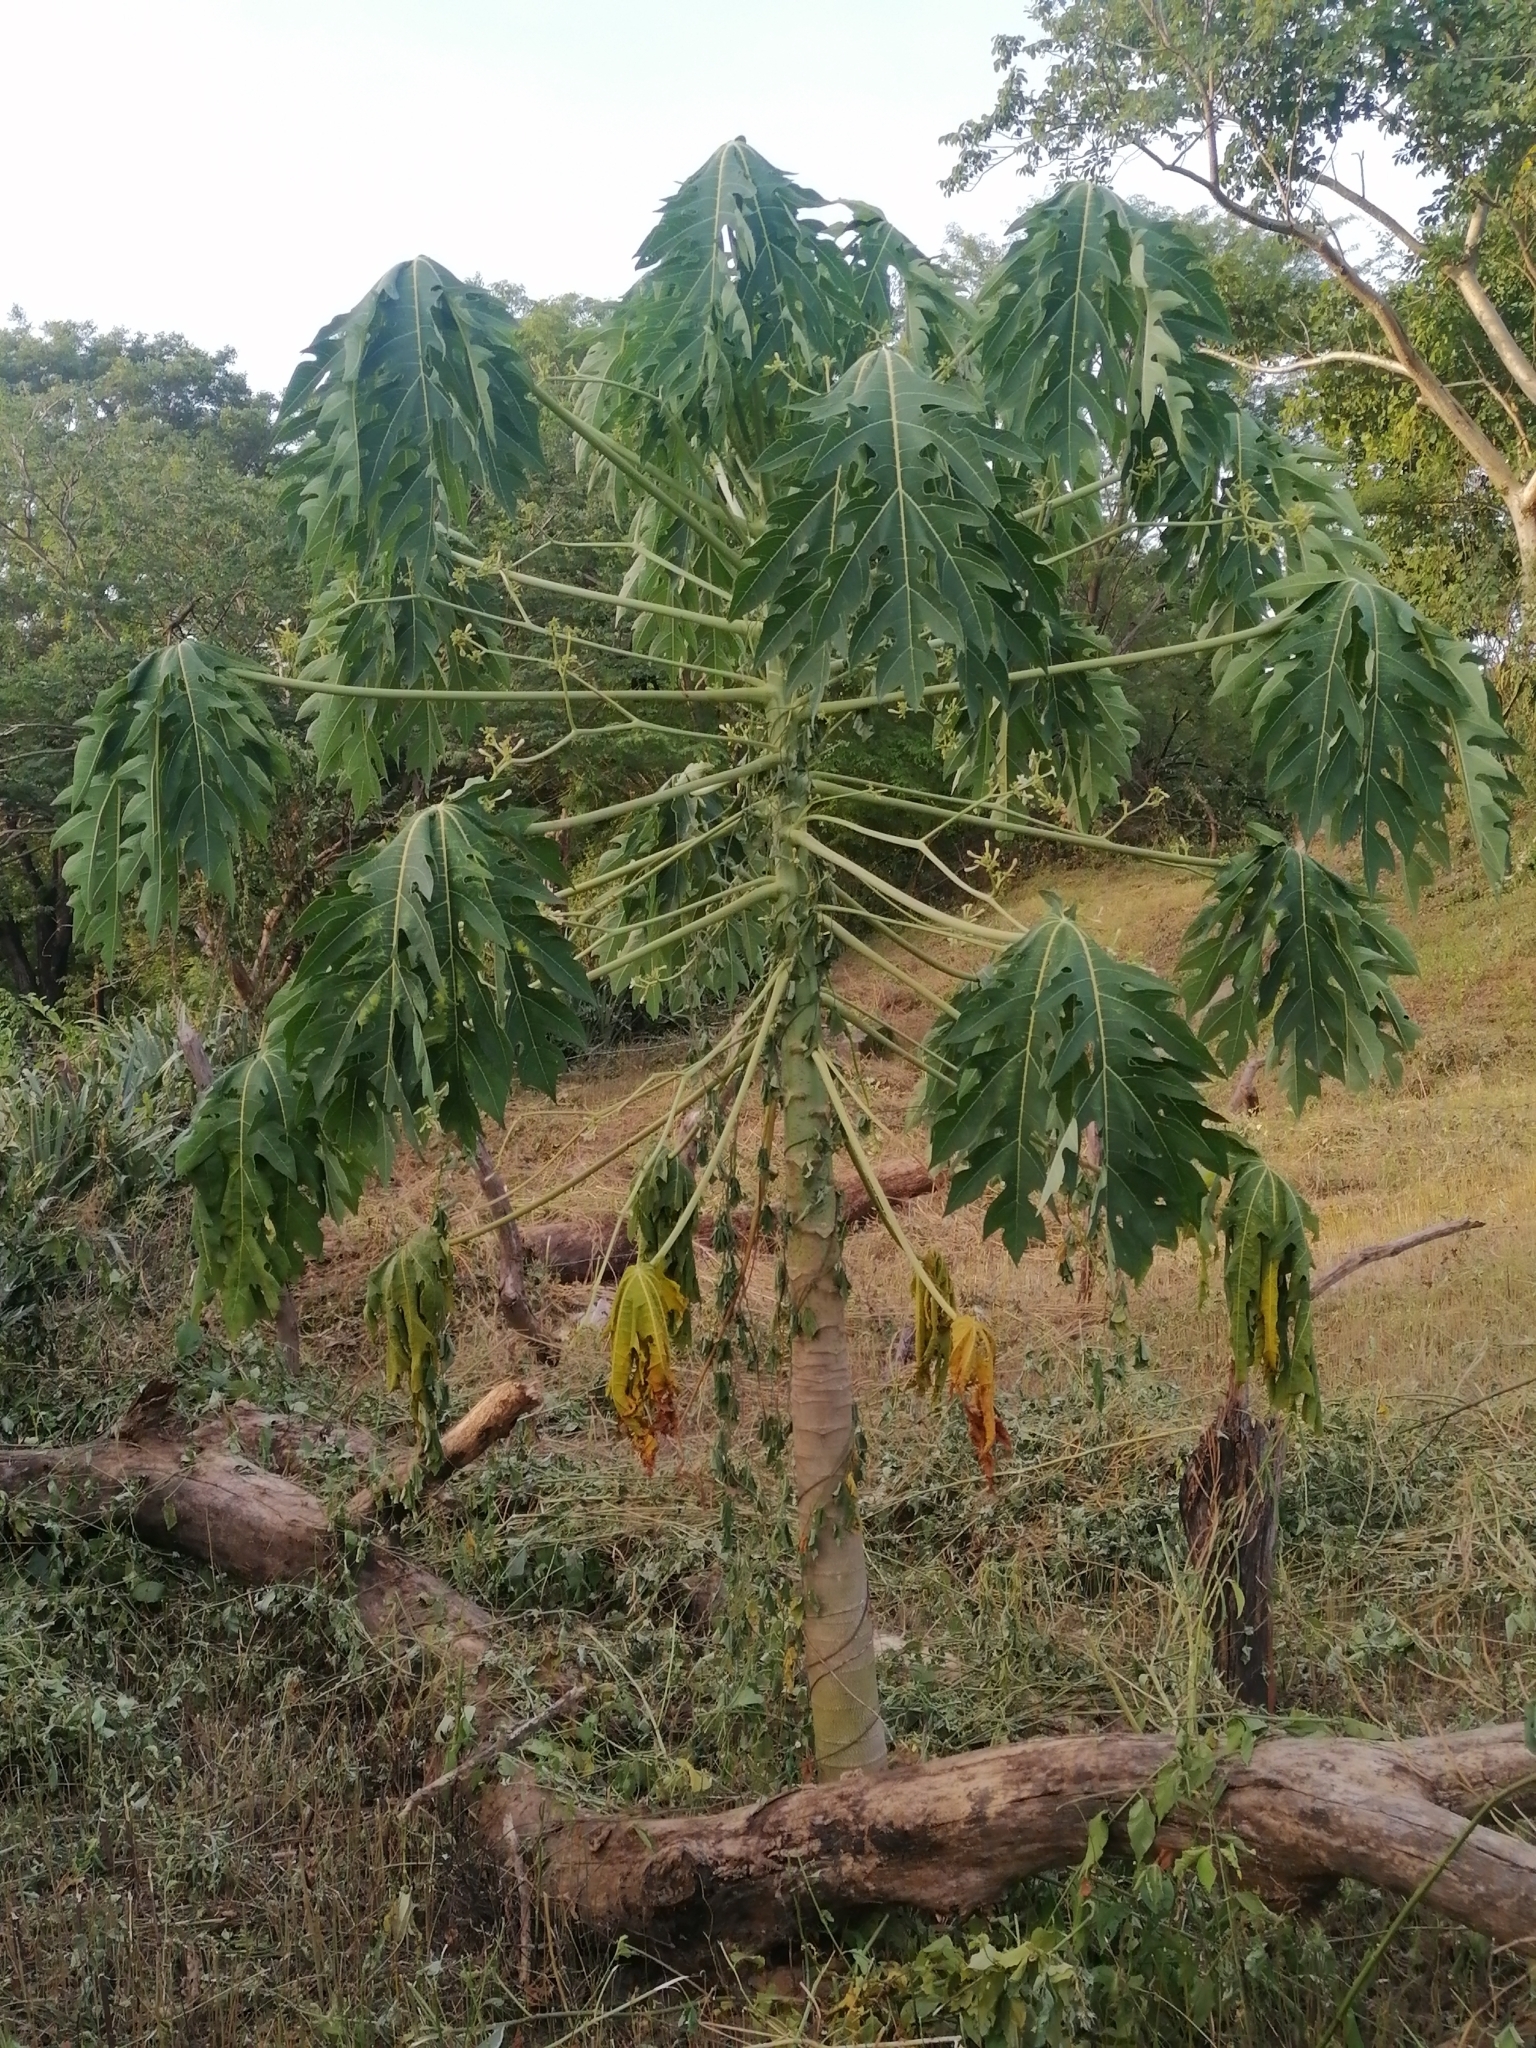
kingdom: Plantae
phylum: Tracheophyta
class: Magnoliopsida
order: Brassicales
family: Caricaceae
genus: Carica
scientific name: Carica papaya
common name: Papaya
